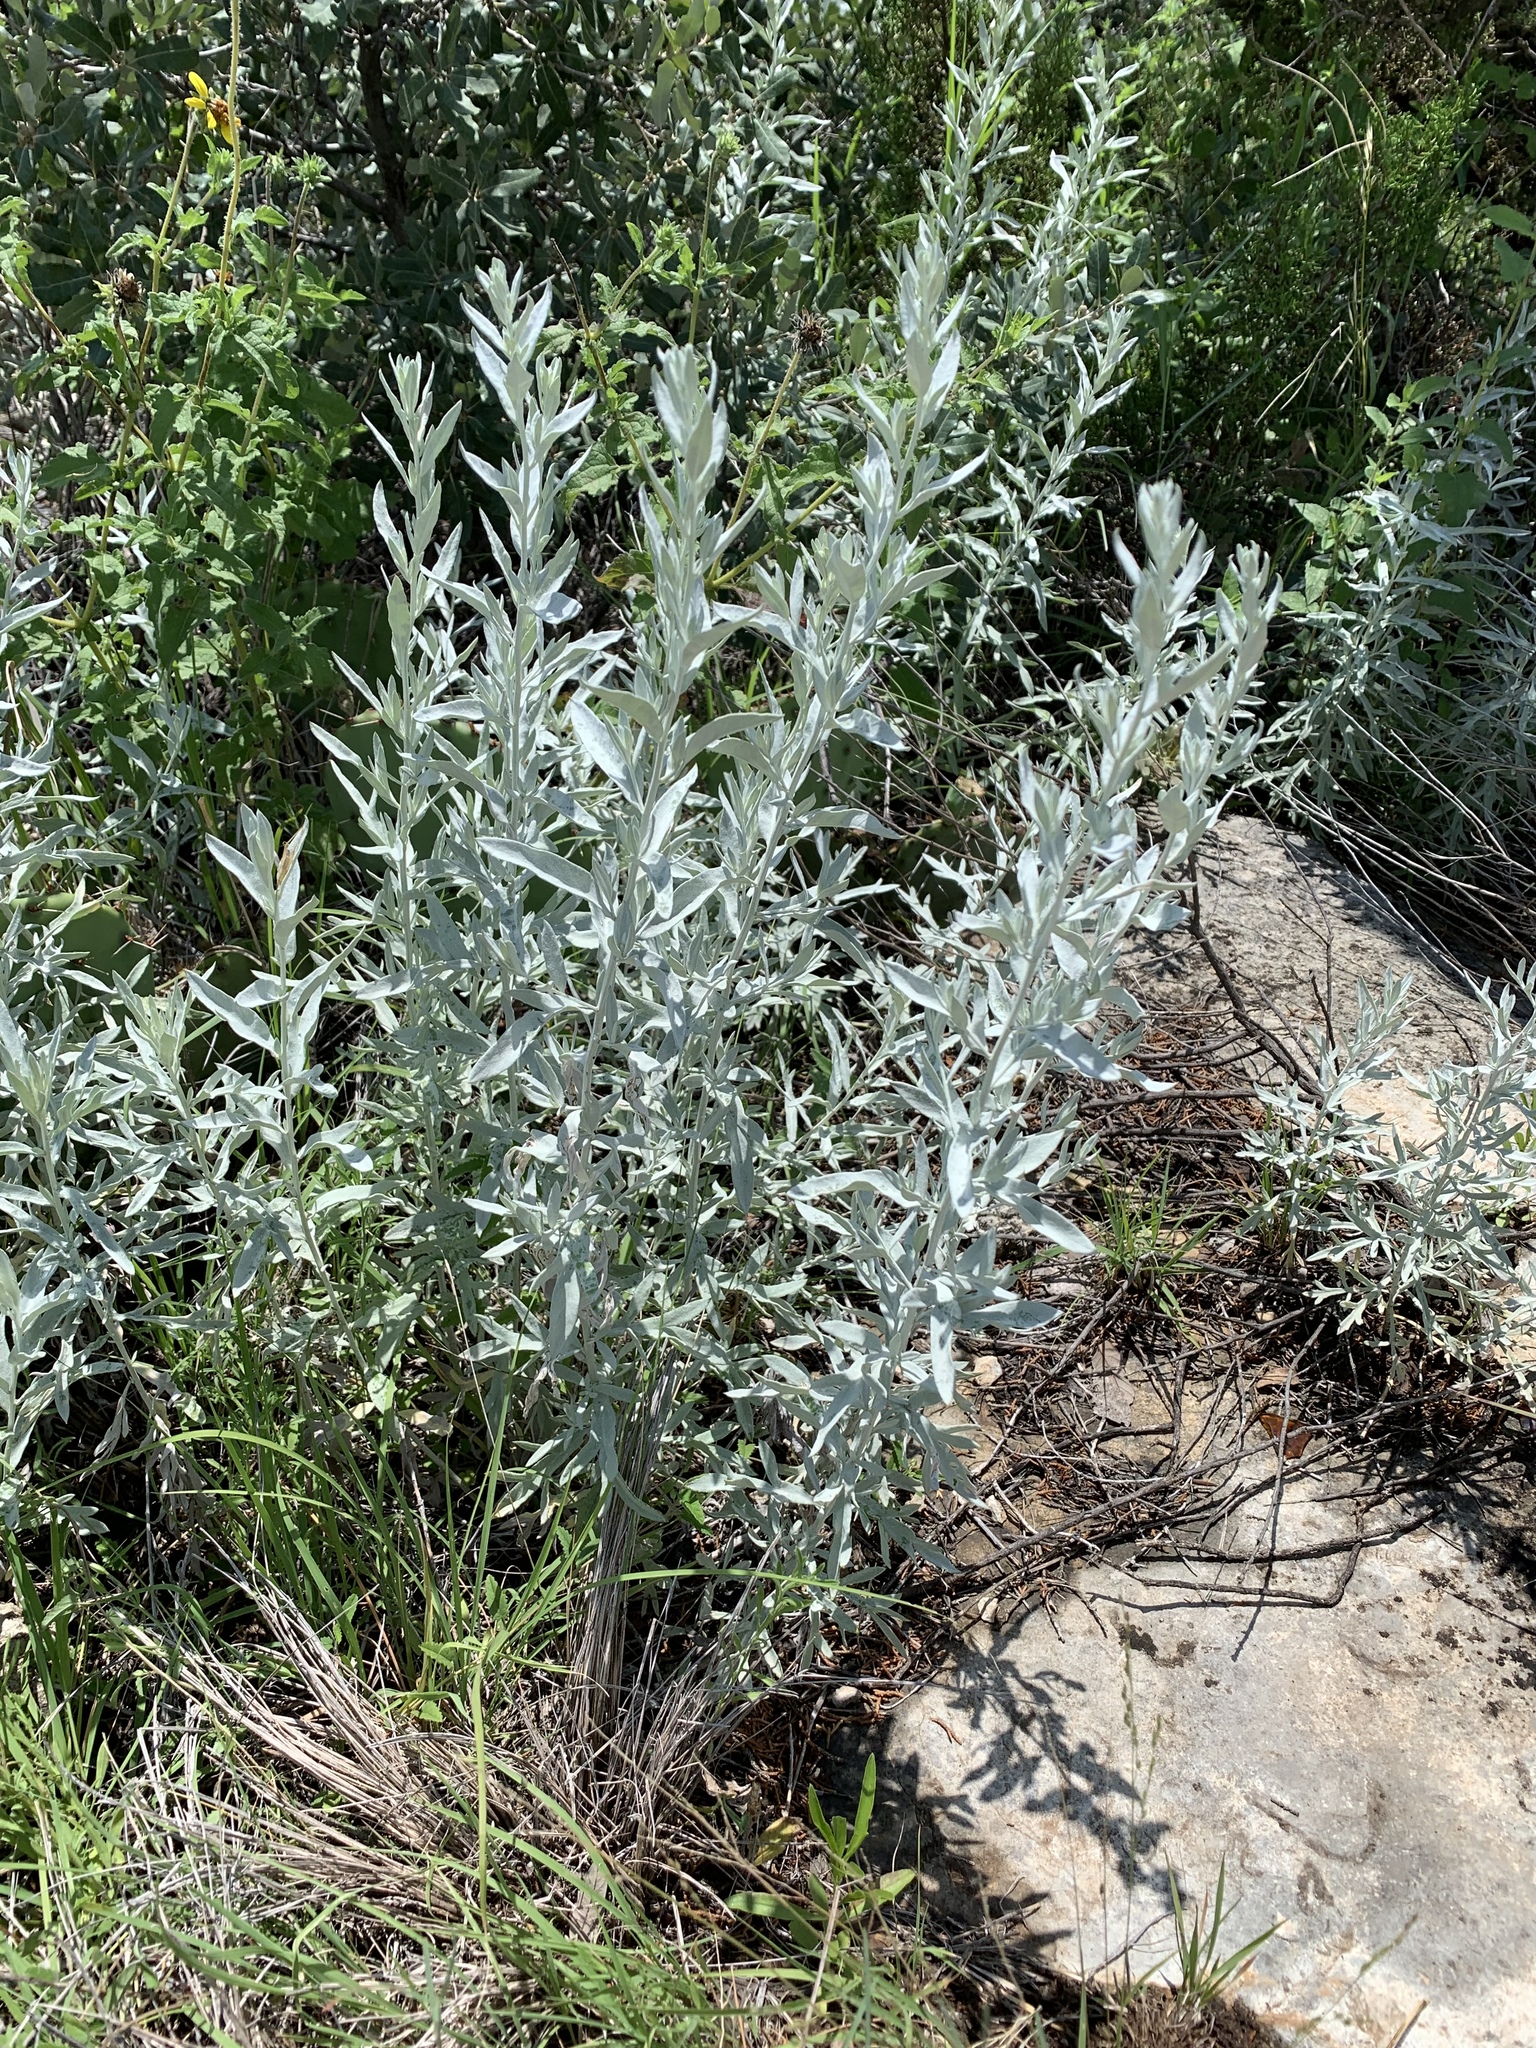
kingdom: Plantae
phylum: Tracheophyta
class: Magnoliopsida
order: Asterales
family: Asteraceae
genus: Artemisia
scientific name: Artemisia ludoviciana
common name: Western mugwort
